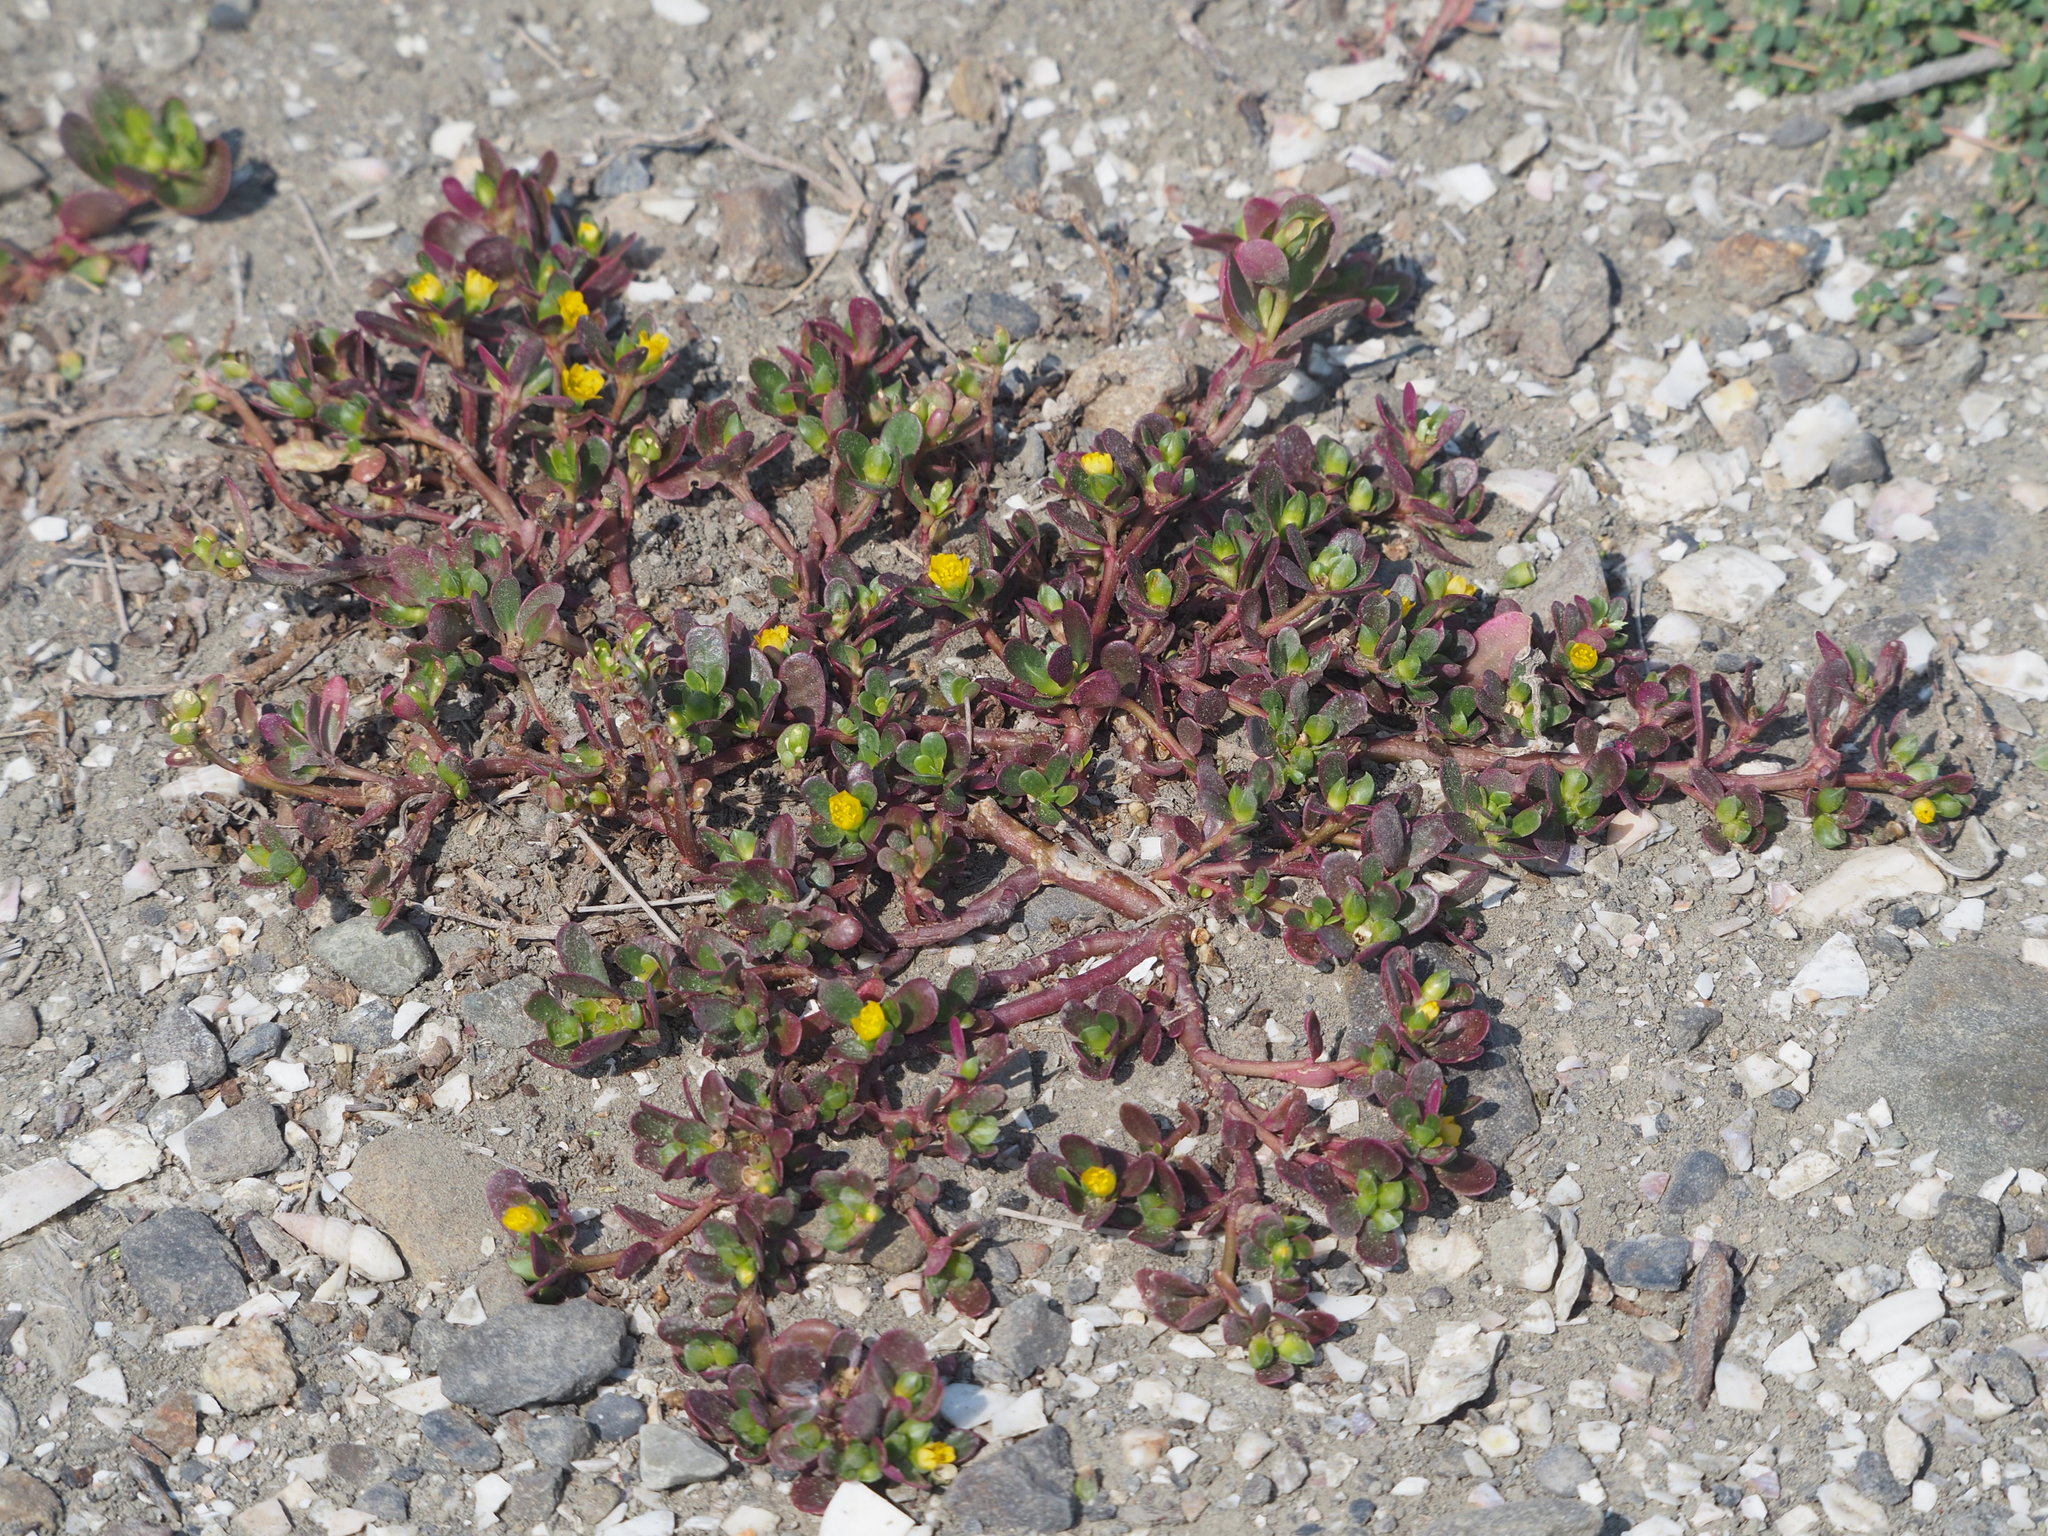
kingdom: Plantae
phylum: Tracheophyta
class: Magnoliopsida
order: Caryophyllales
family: Portulacaceae
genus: Portulaca
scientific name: Portulaca oleracea
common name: Common purslane
